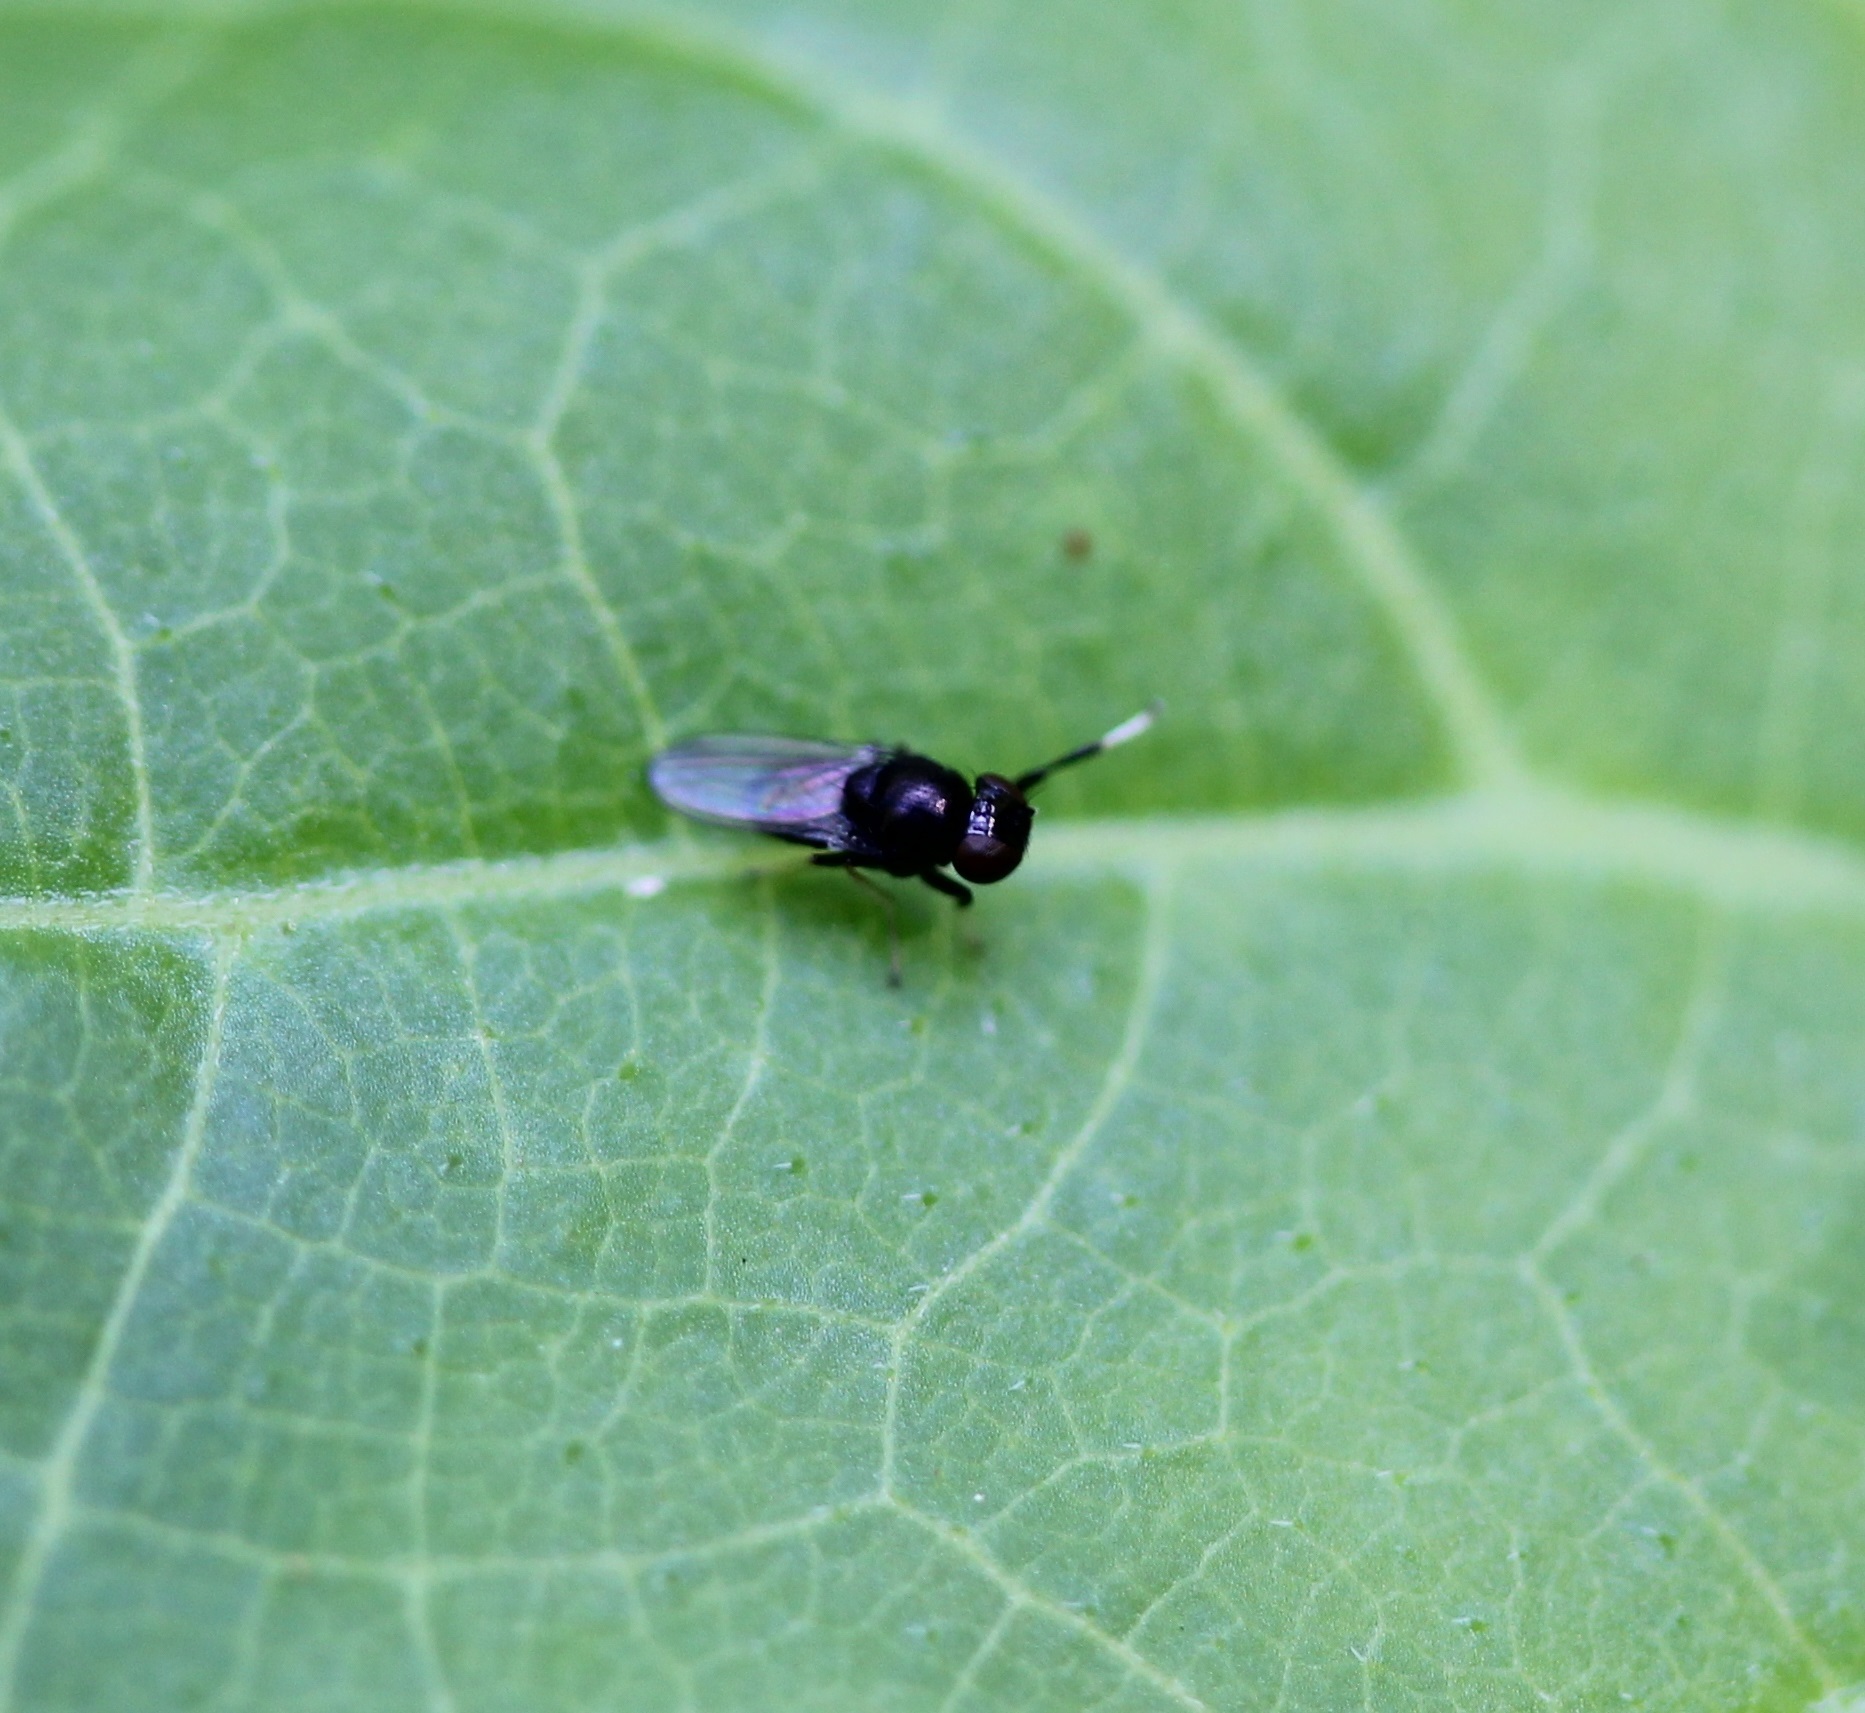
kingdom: Animalia
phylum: Arthropoda
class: Insecta
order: Diptera
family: Ephydridae
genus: Athyroglossa
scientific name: Athyroglossa glaphyropus
